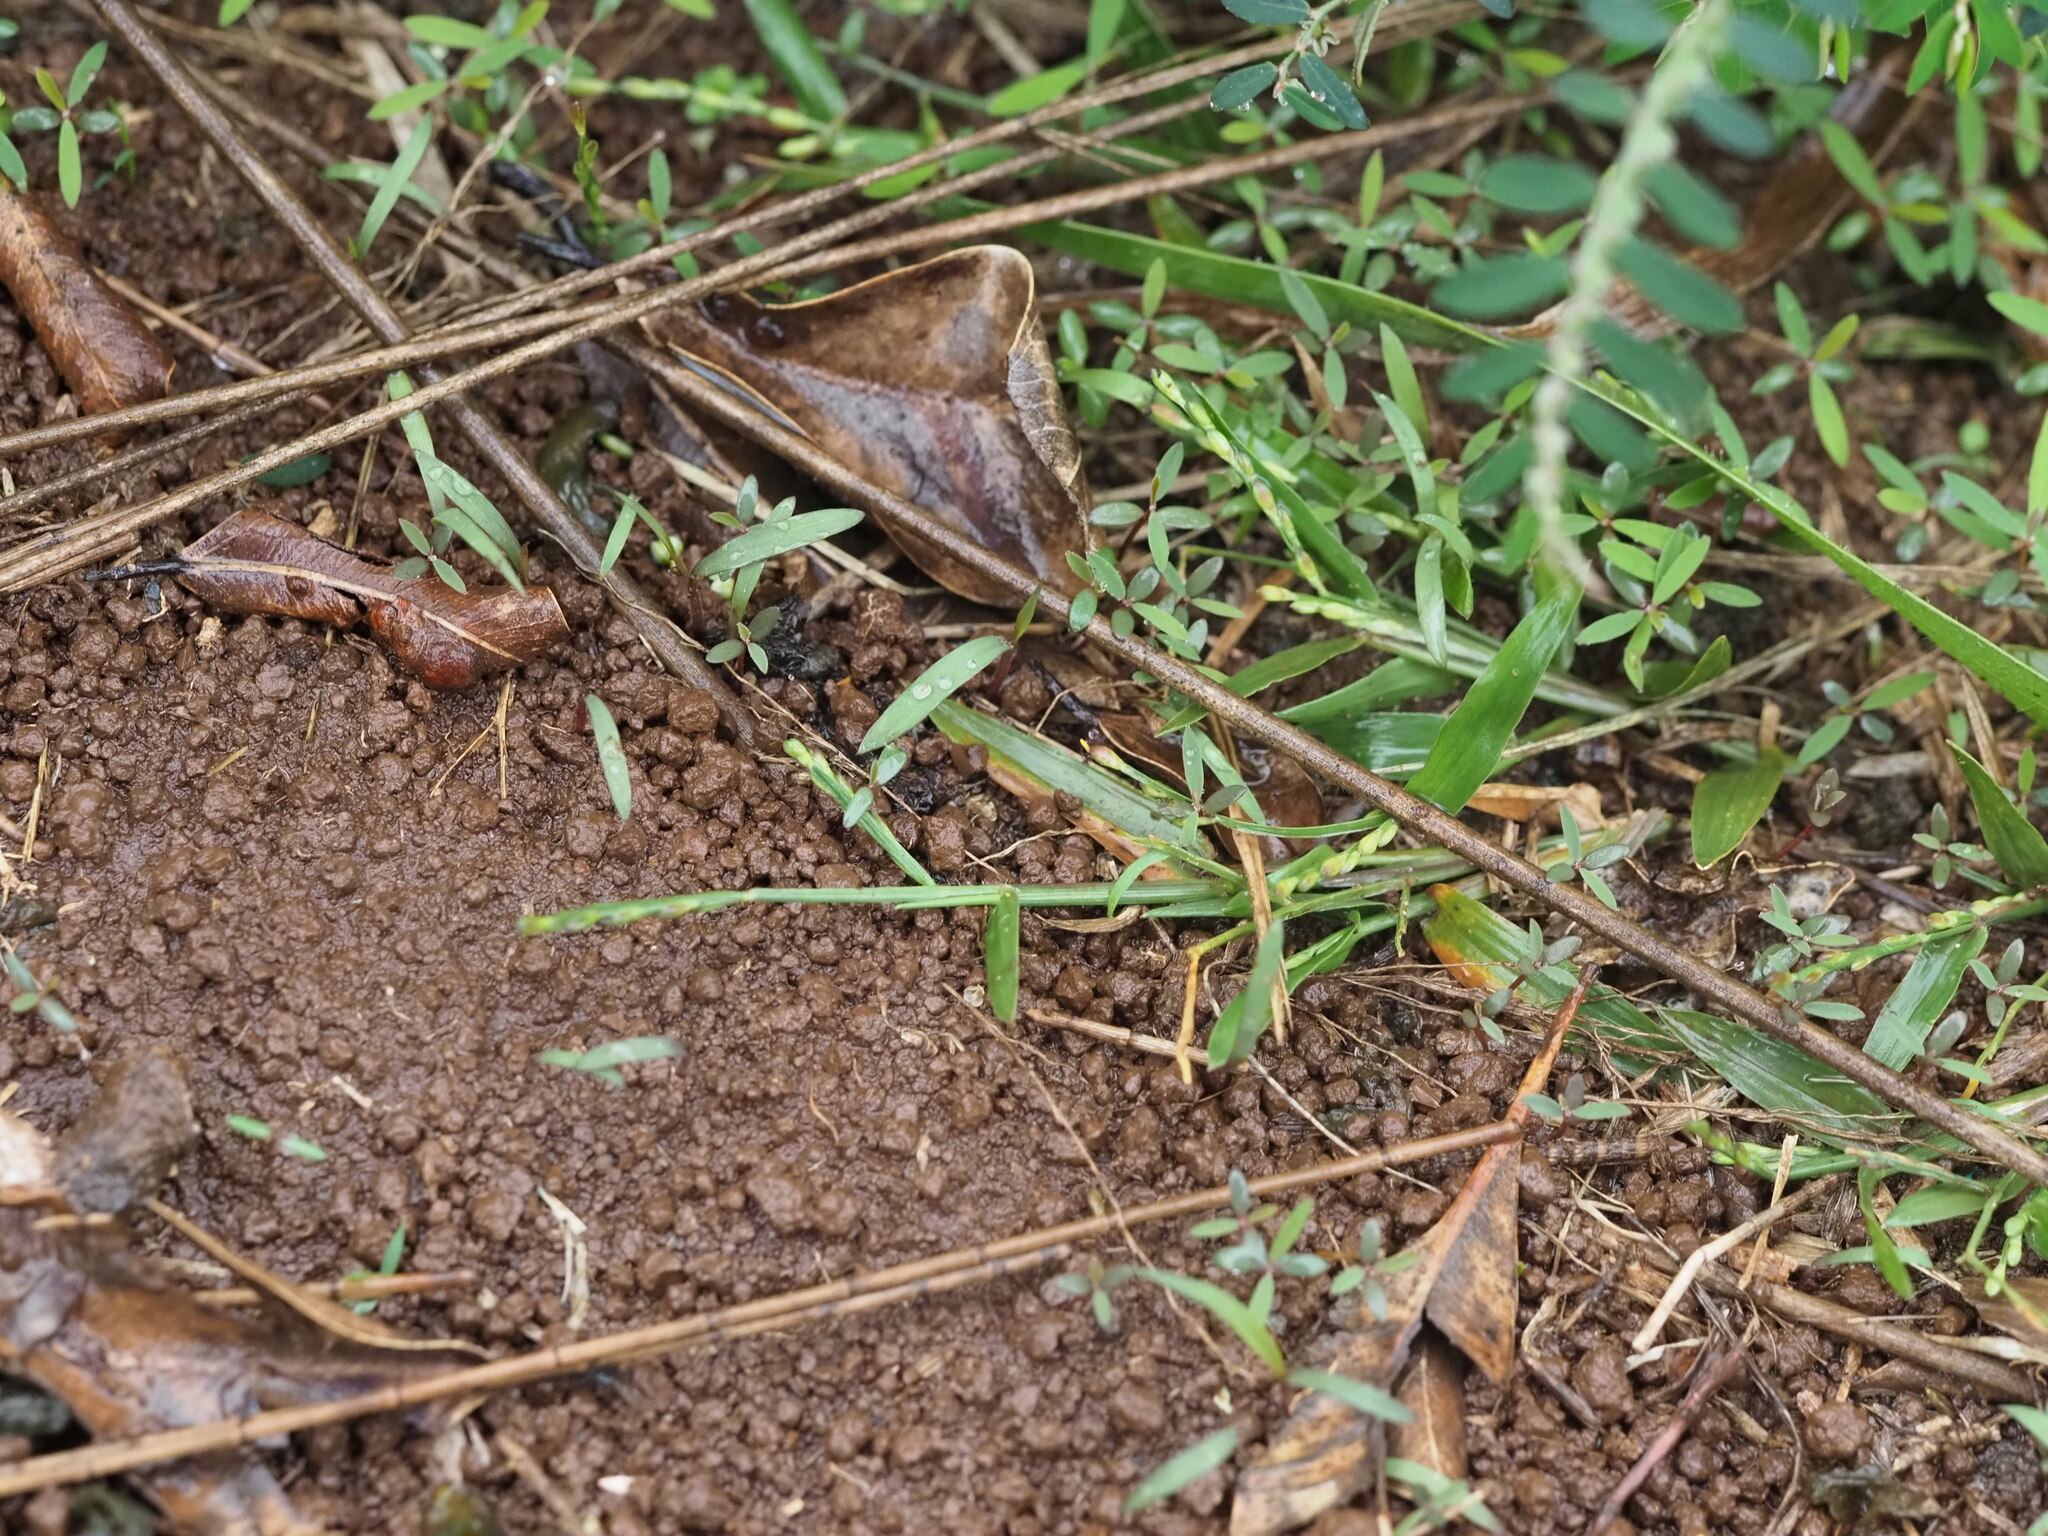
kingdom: Plantae
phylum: Tracheophyta
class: Liliopsida
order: Poales
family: Poaceae
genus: Urochloa
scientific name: Urochloa distachyos
